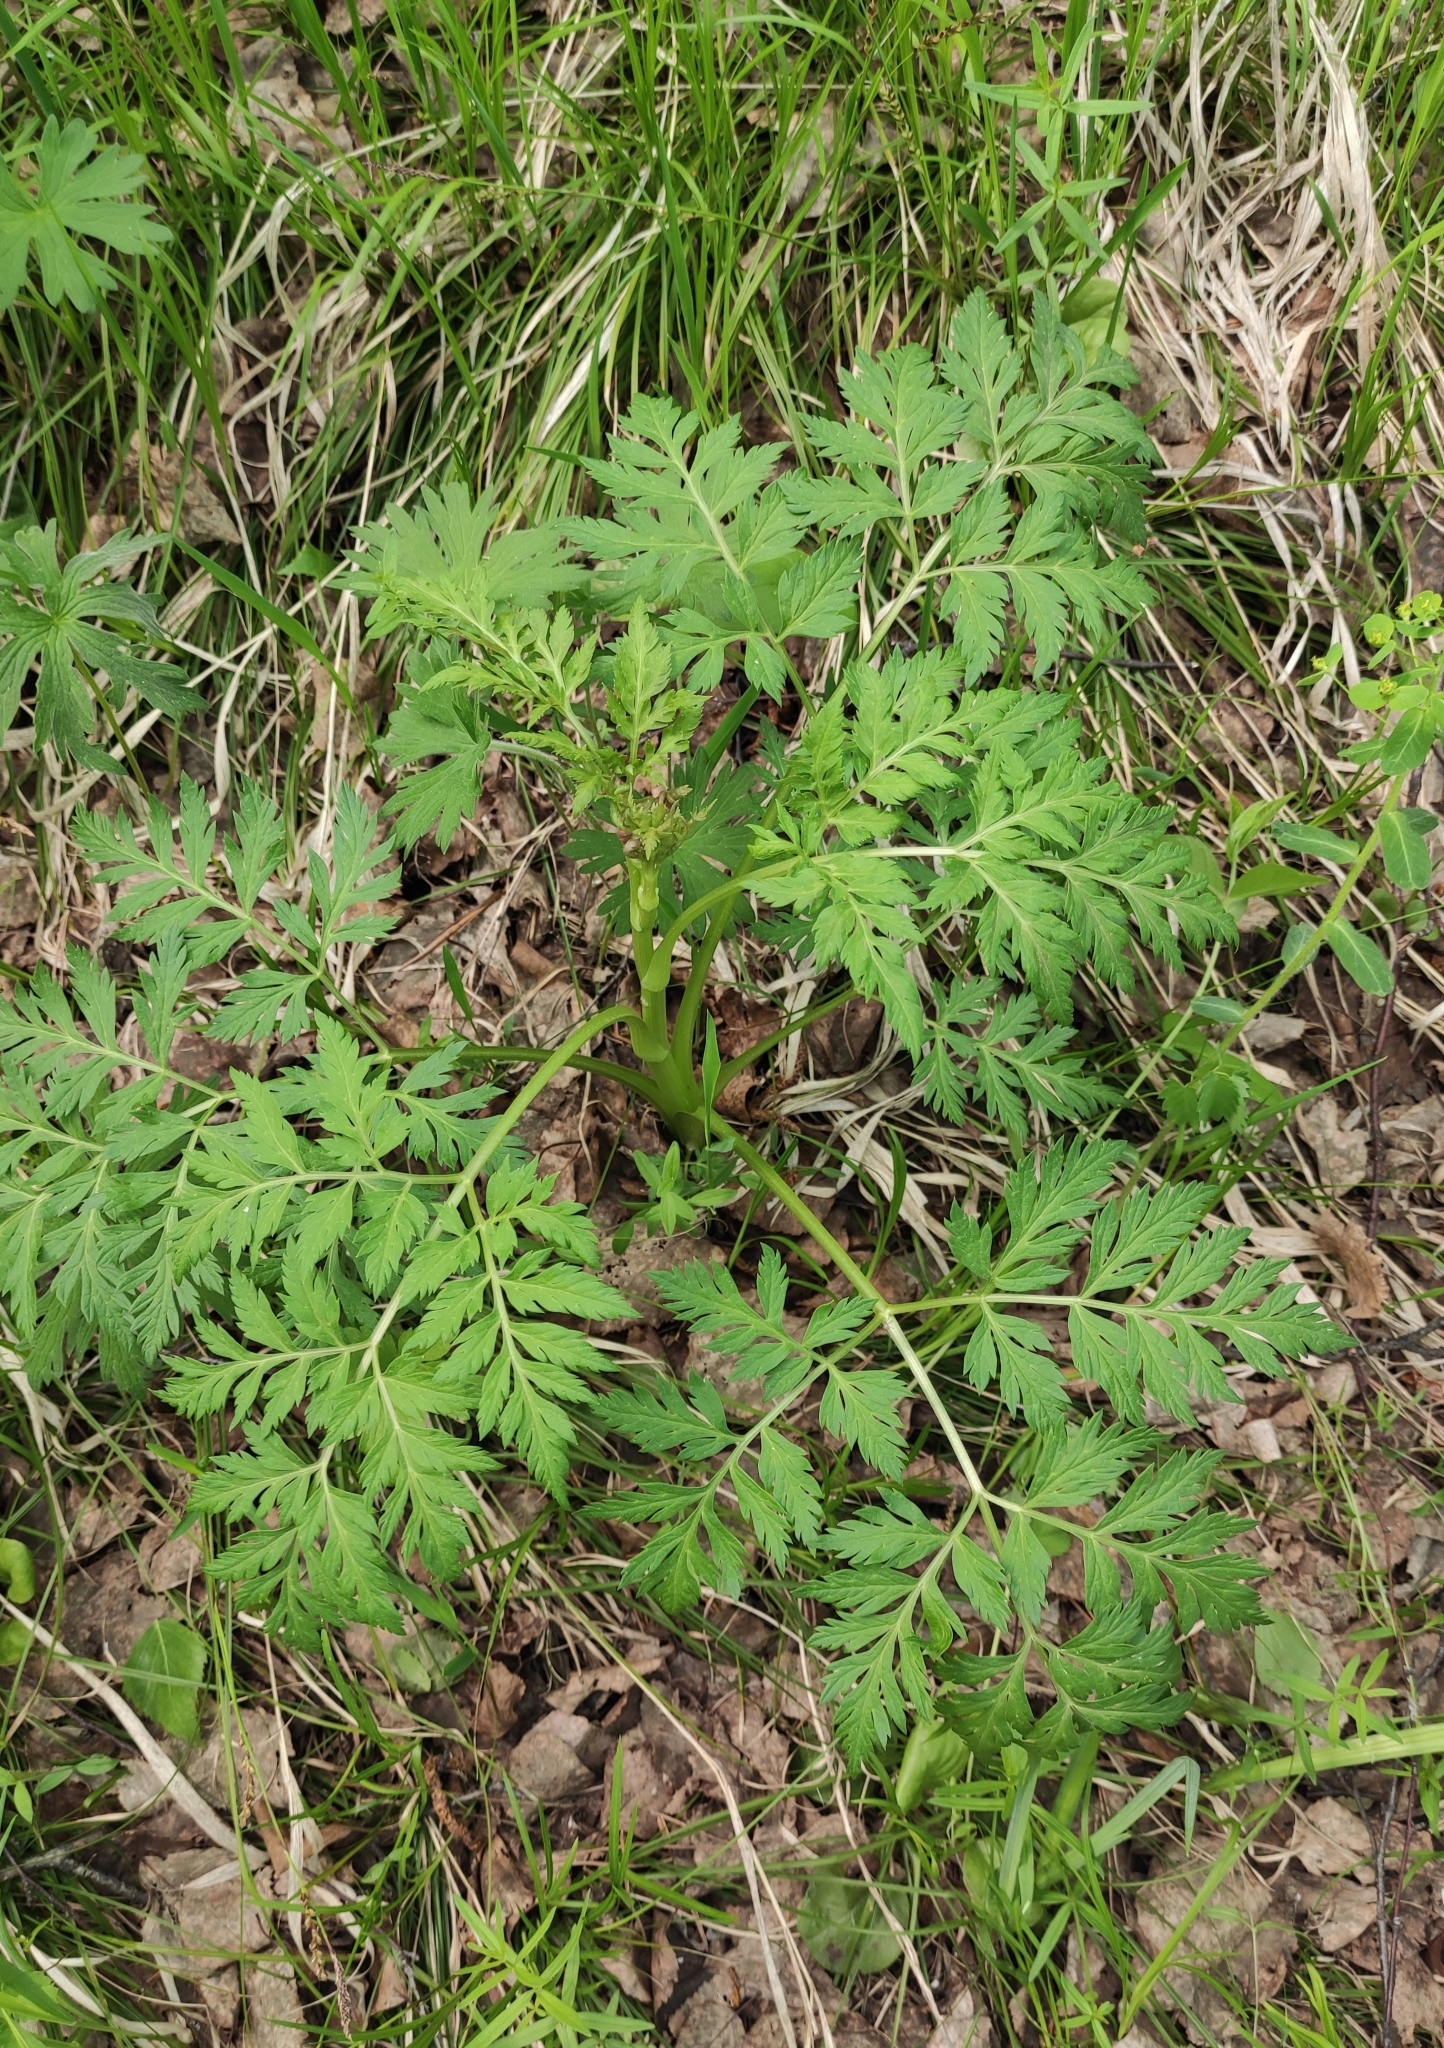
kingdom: Plantae
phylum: Tracheophyta
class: Magnoliopsida
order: Apiales
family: Apiaceae
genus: Pleurospermum
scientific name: Pleurospermum uralense
